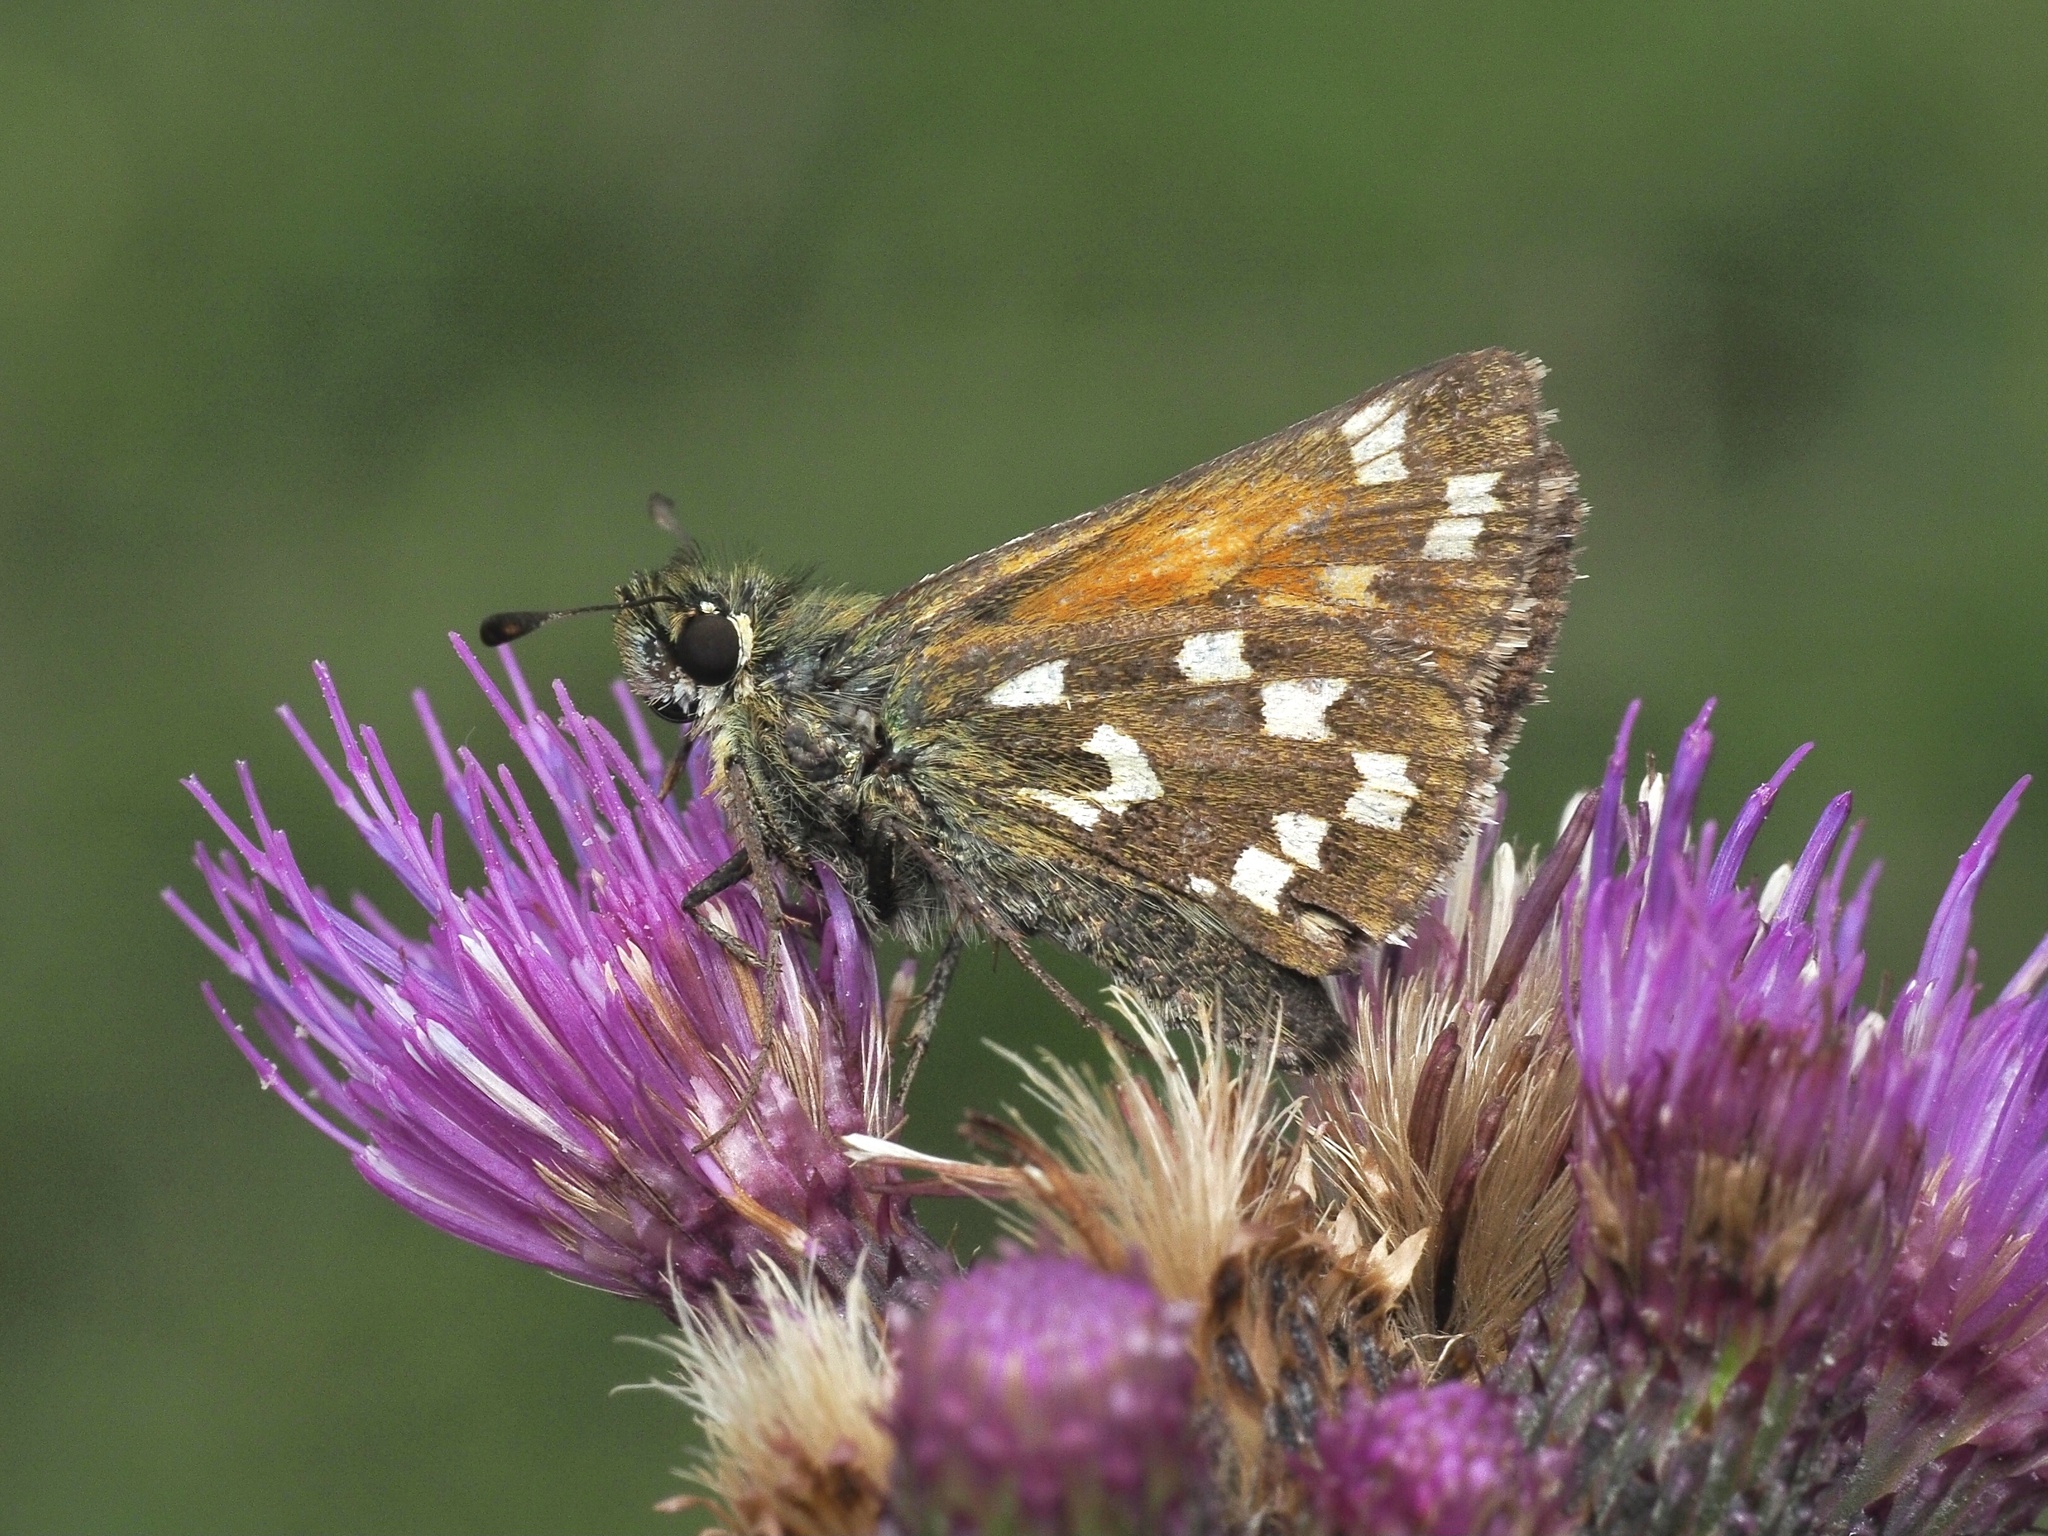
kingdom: Animalia
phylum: Arthropoda
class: Insecta
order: Lepidoptera
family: Hesperiidae
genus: Hesperia
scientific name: Hesperia comma
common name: Common branded skipper
